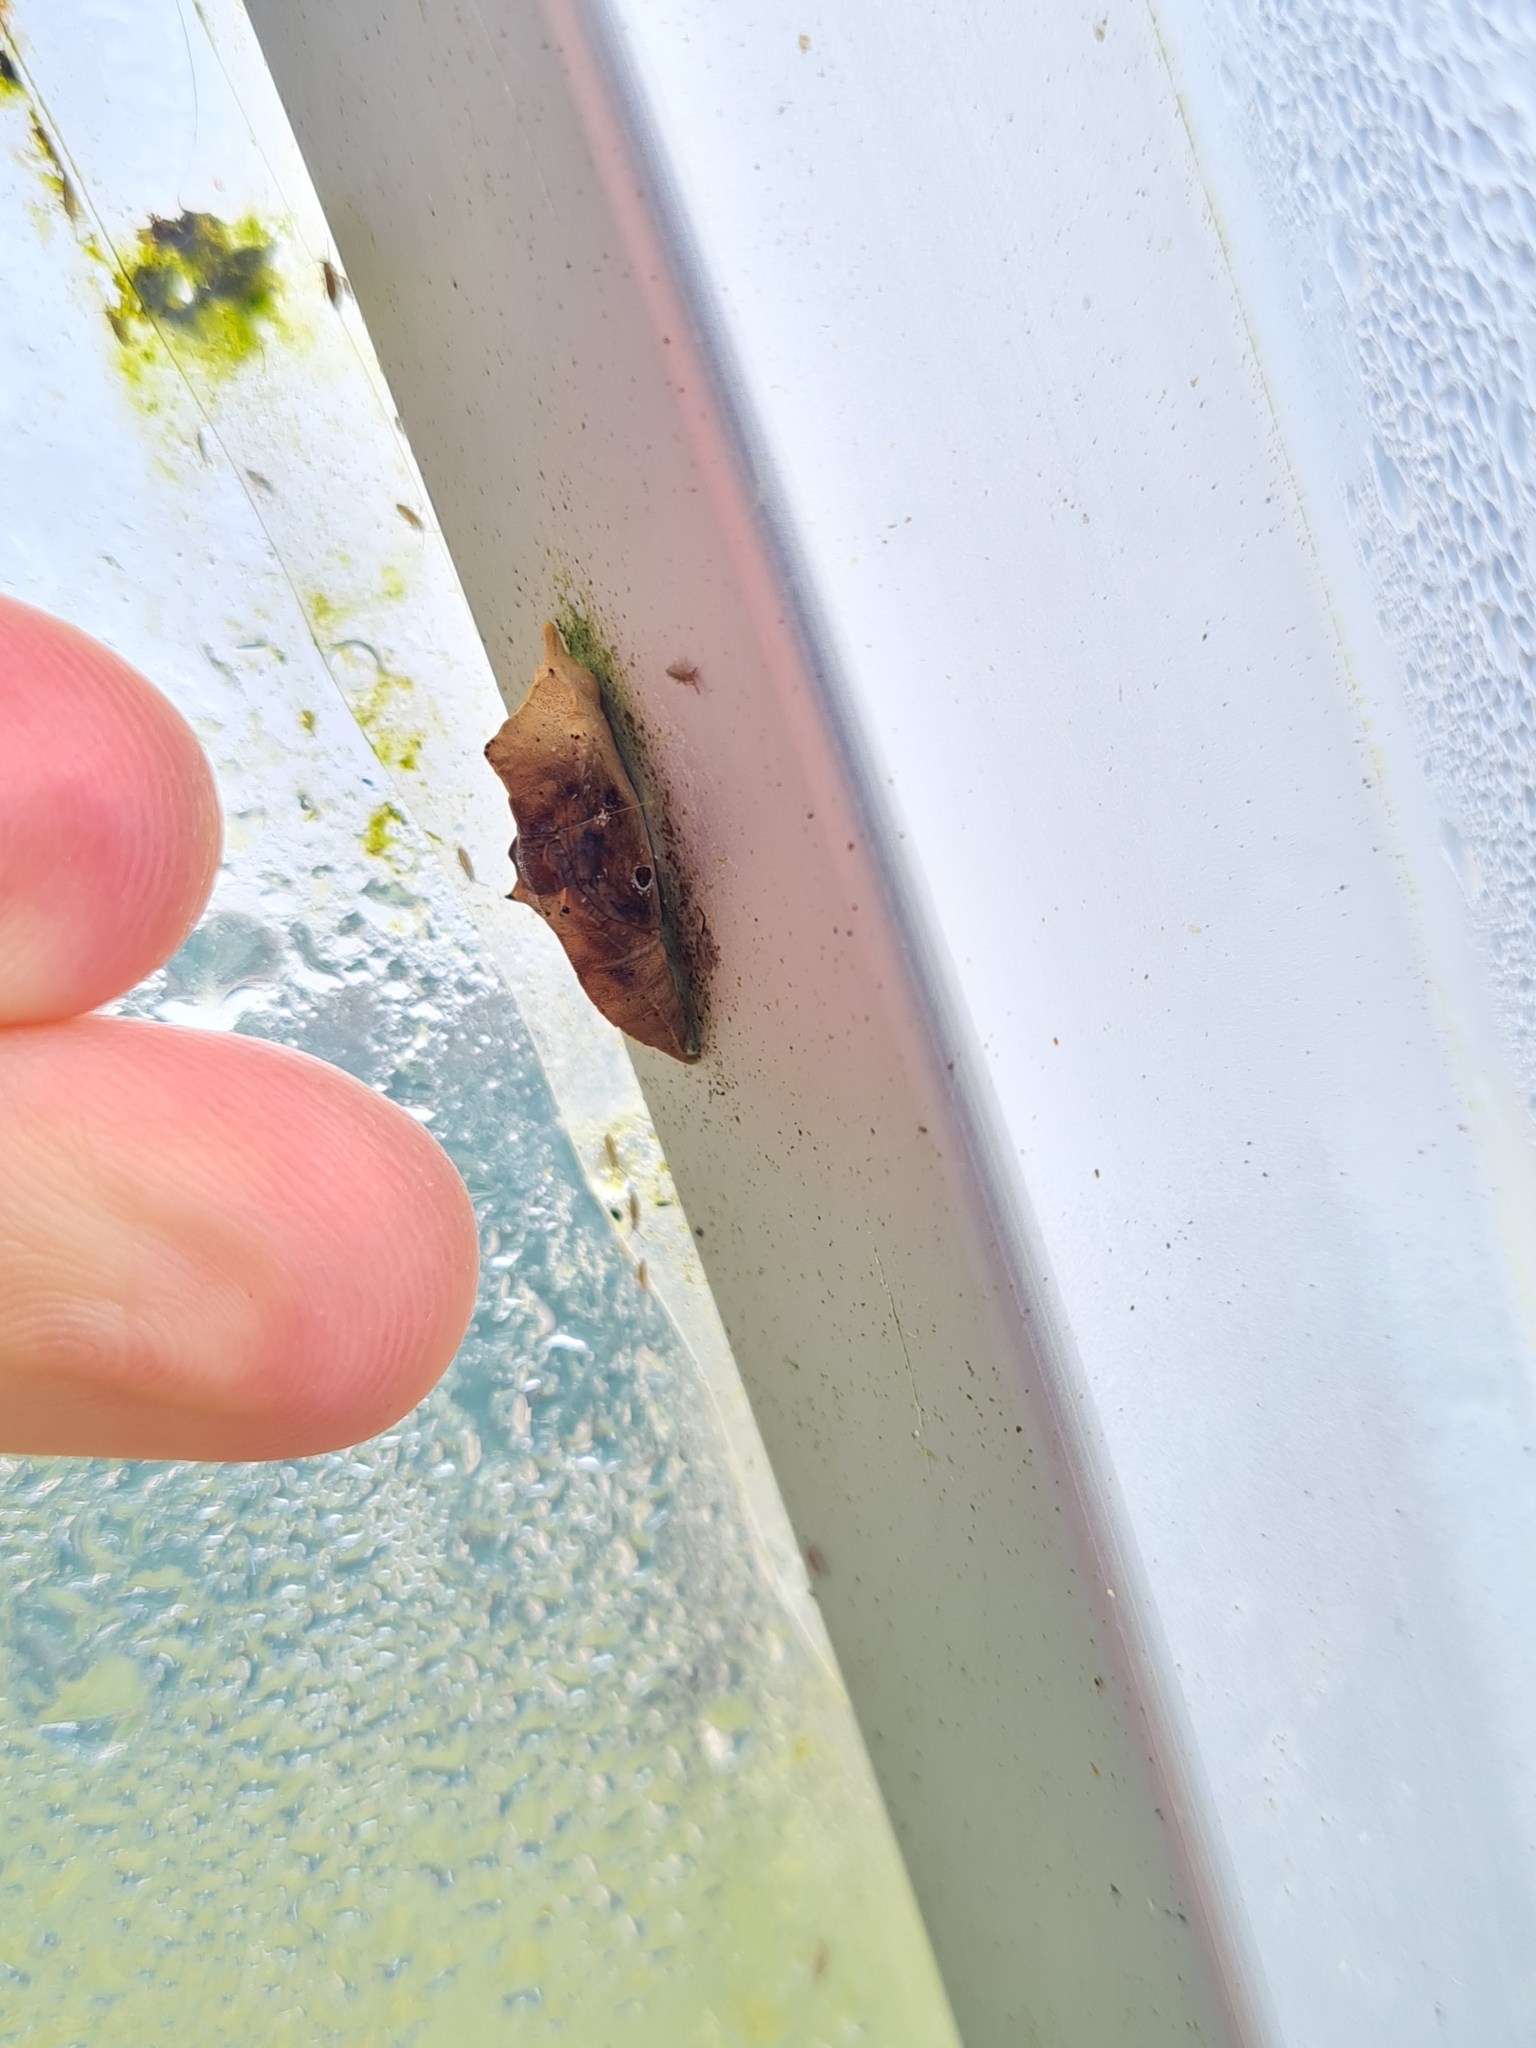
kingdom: Animalia
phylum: Arthropoda
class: Insecta
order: Lepidoptera
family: Pieridae
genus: Pieris
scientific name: Pieris rapae
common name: Small white
